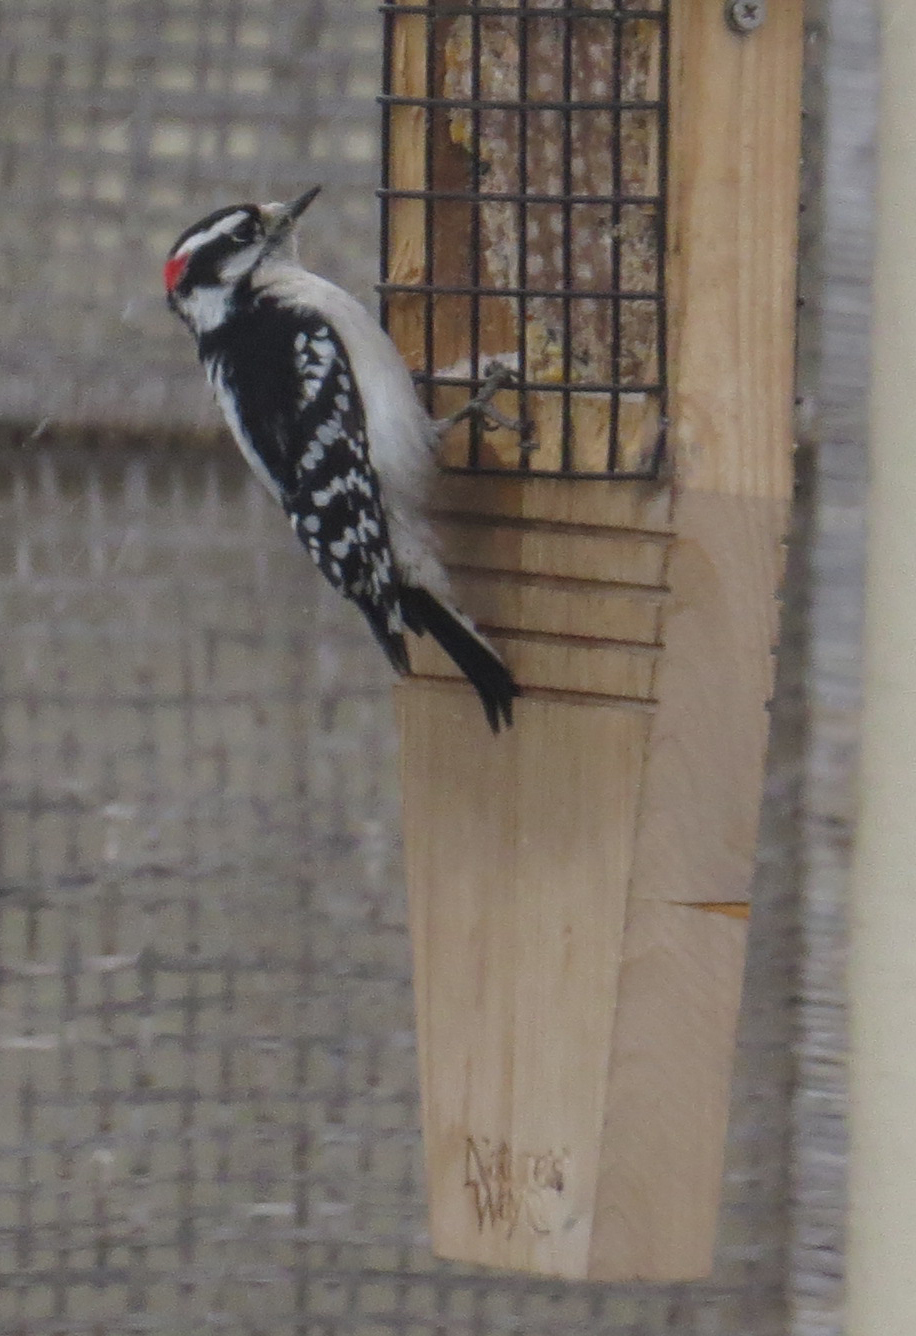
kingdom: Animalia
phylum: Chordata
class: Aves
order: Piciformes
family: Picidae
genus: Dryobates
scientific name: Dryobates pubescens
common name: Downy woodpecker
